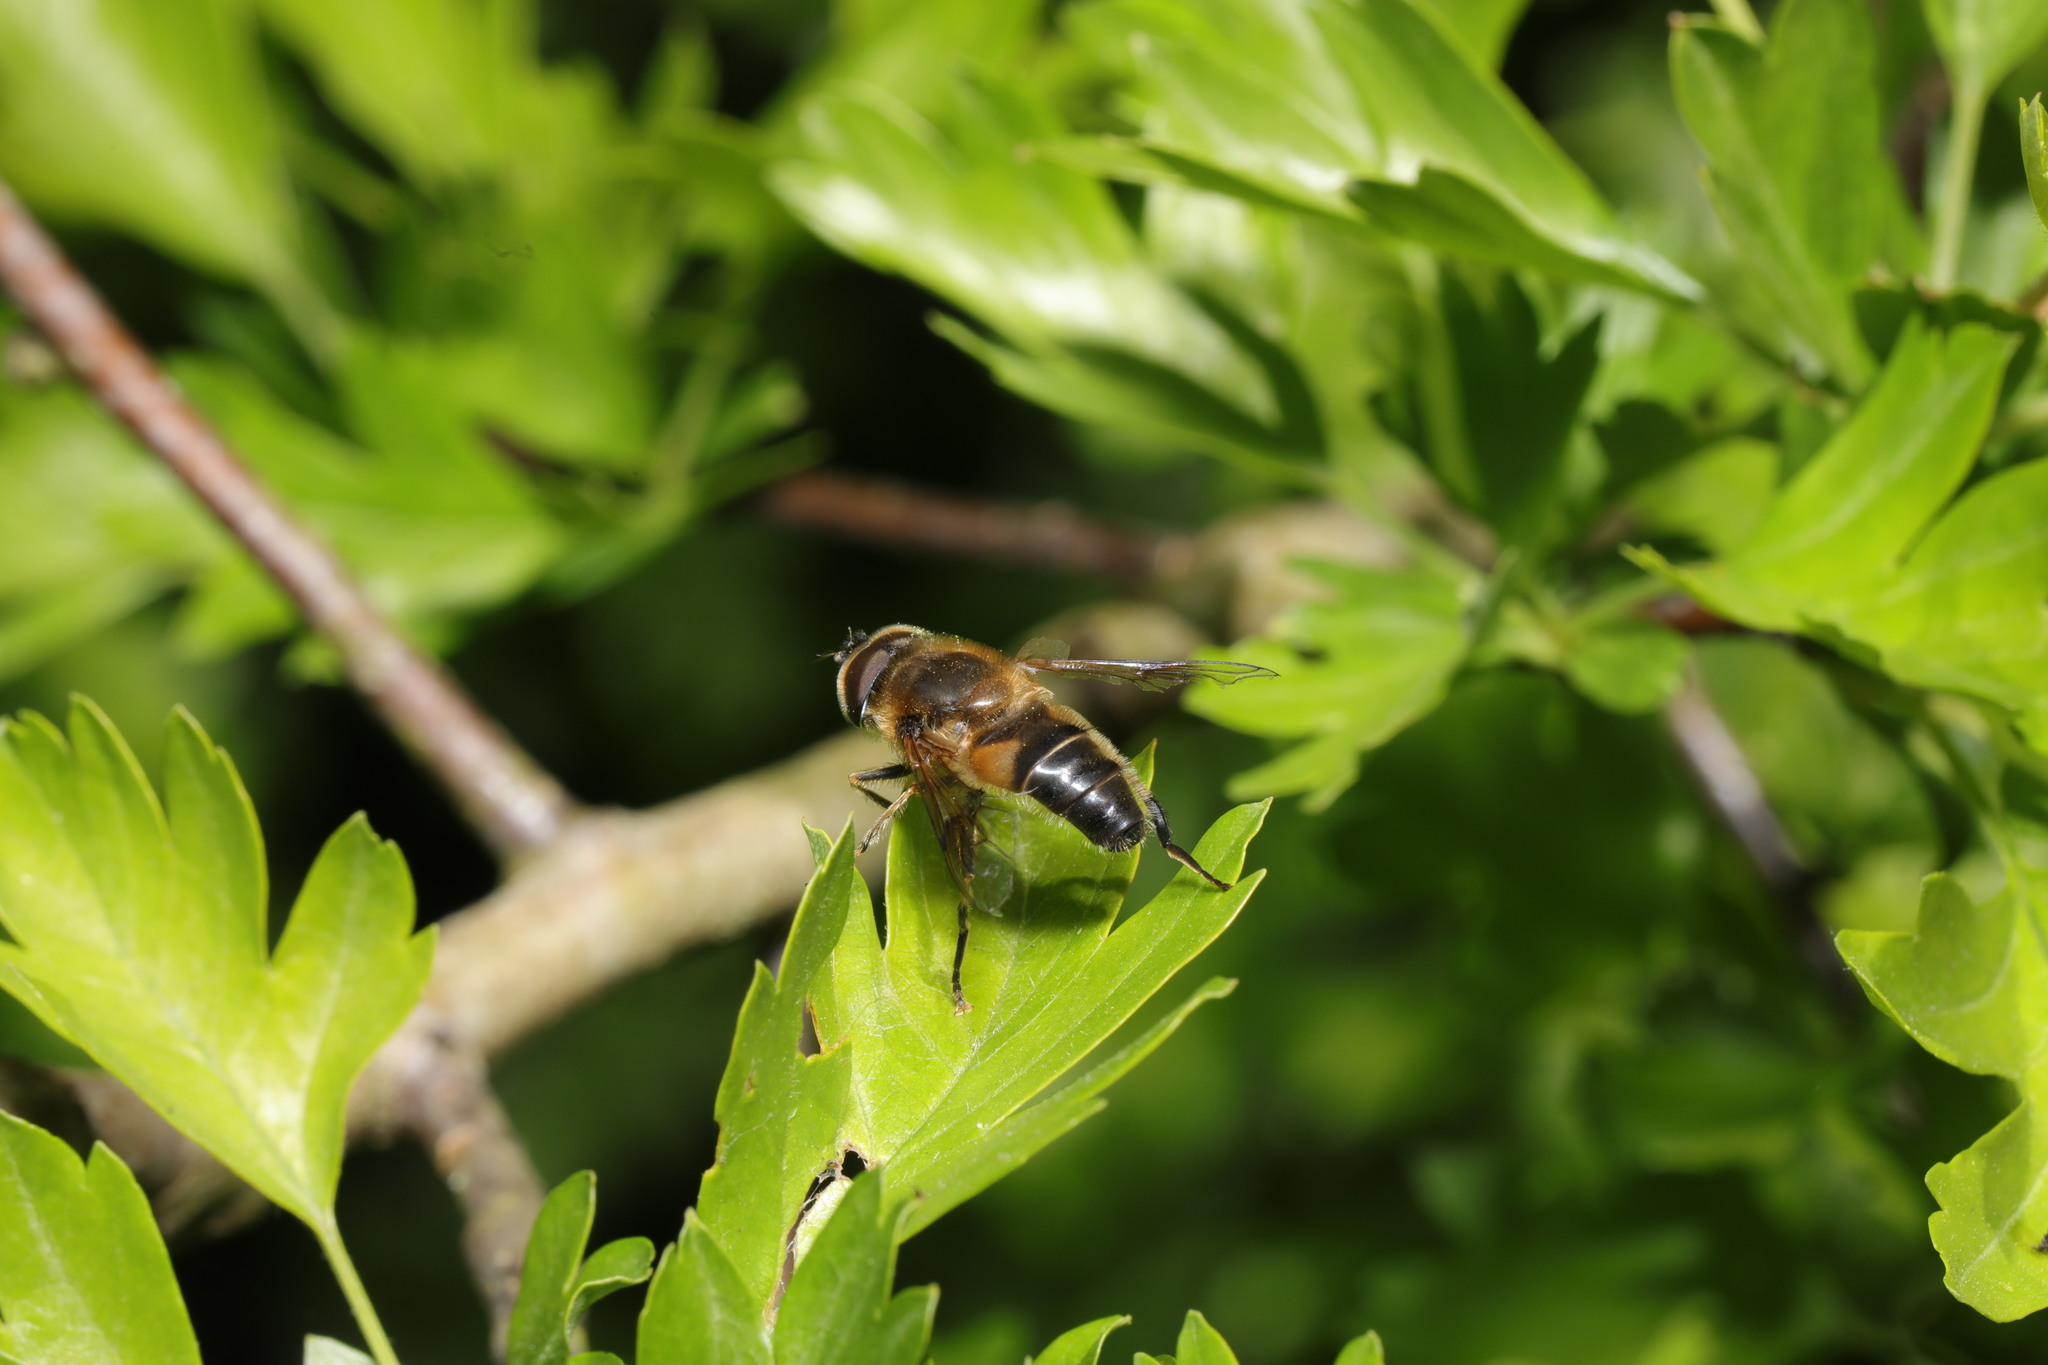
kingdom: Animalia
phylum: Arthropoda
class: Insecta
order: Diptera
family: Syrphidae
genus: Eristalis
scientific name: Eristalis pertinax
